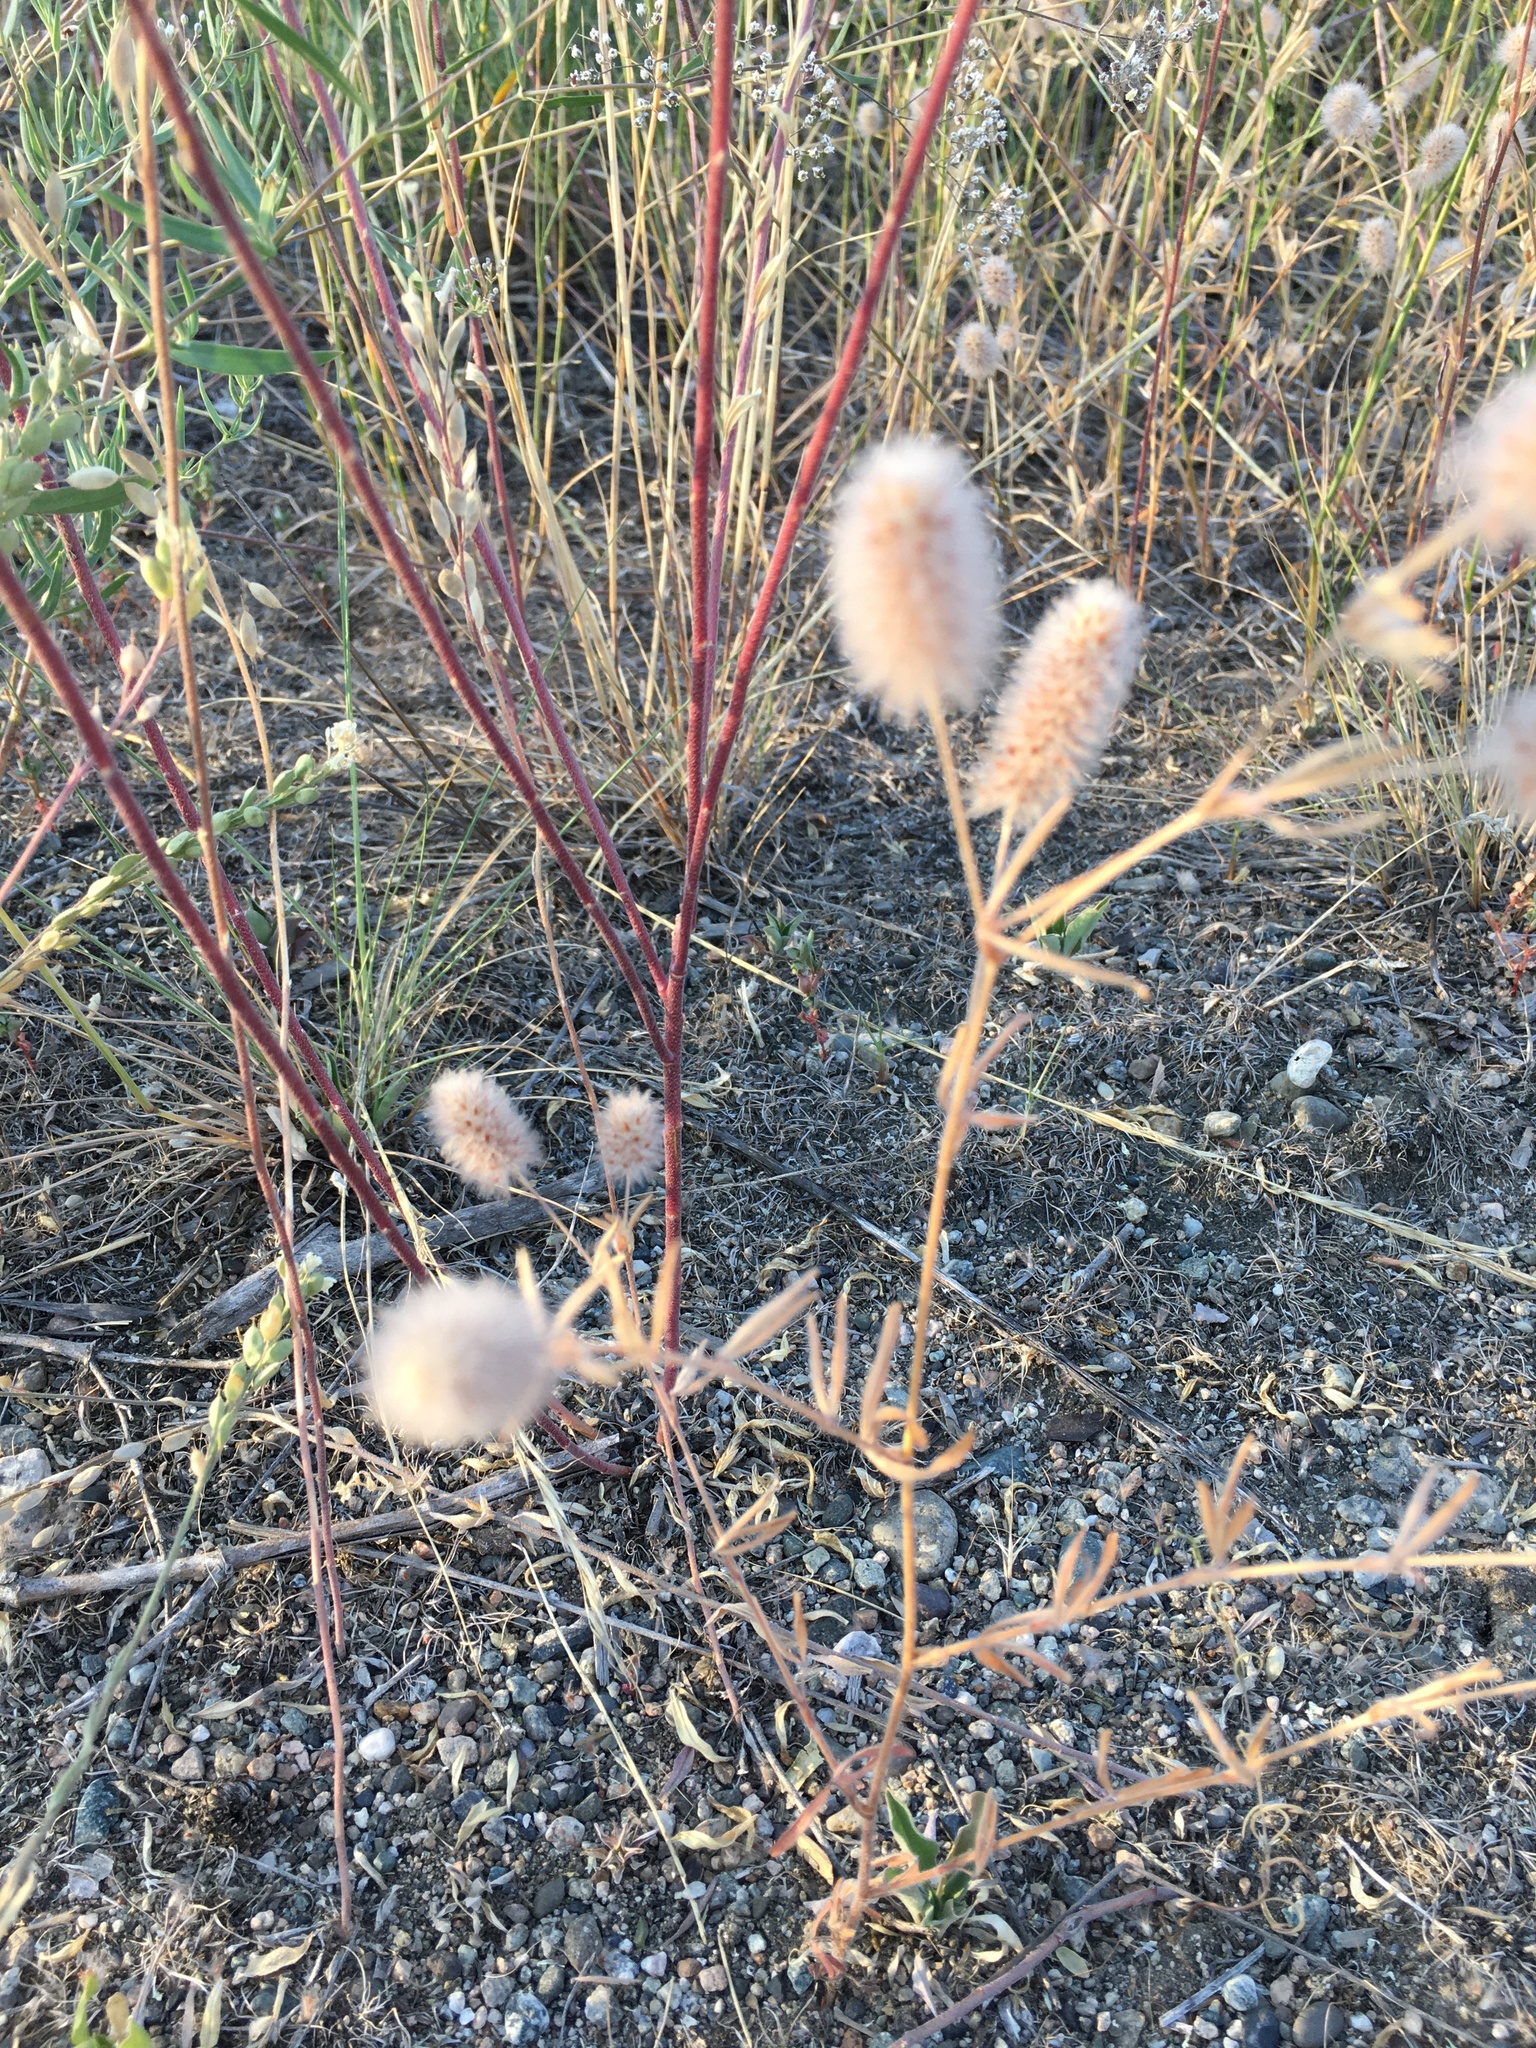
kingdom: Plantae
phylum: Tracheophyta
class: Magnoliopsida
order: Fabales
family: Fabaceae
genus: Trifolium
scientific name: Trifolium arvense
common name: Hare's-foot clover
